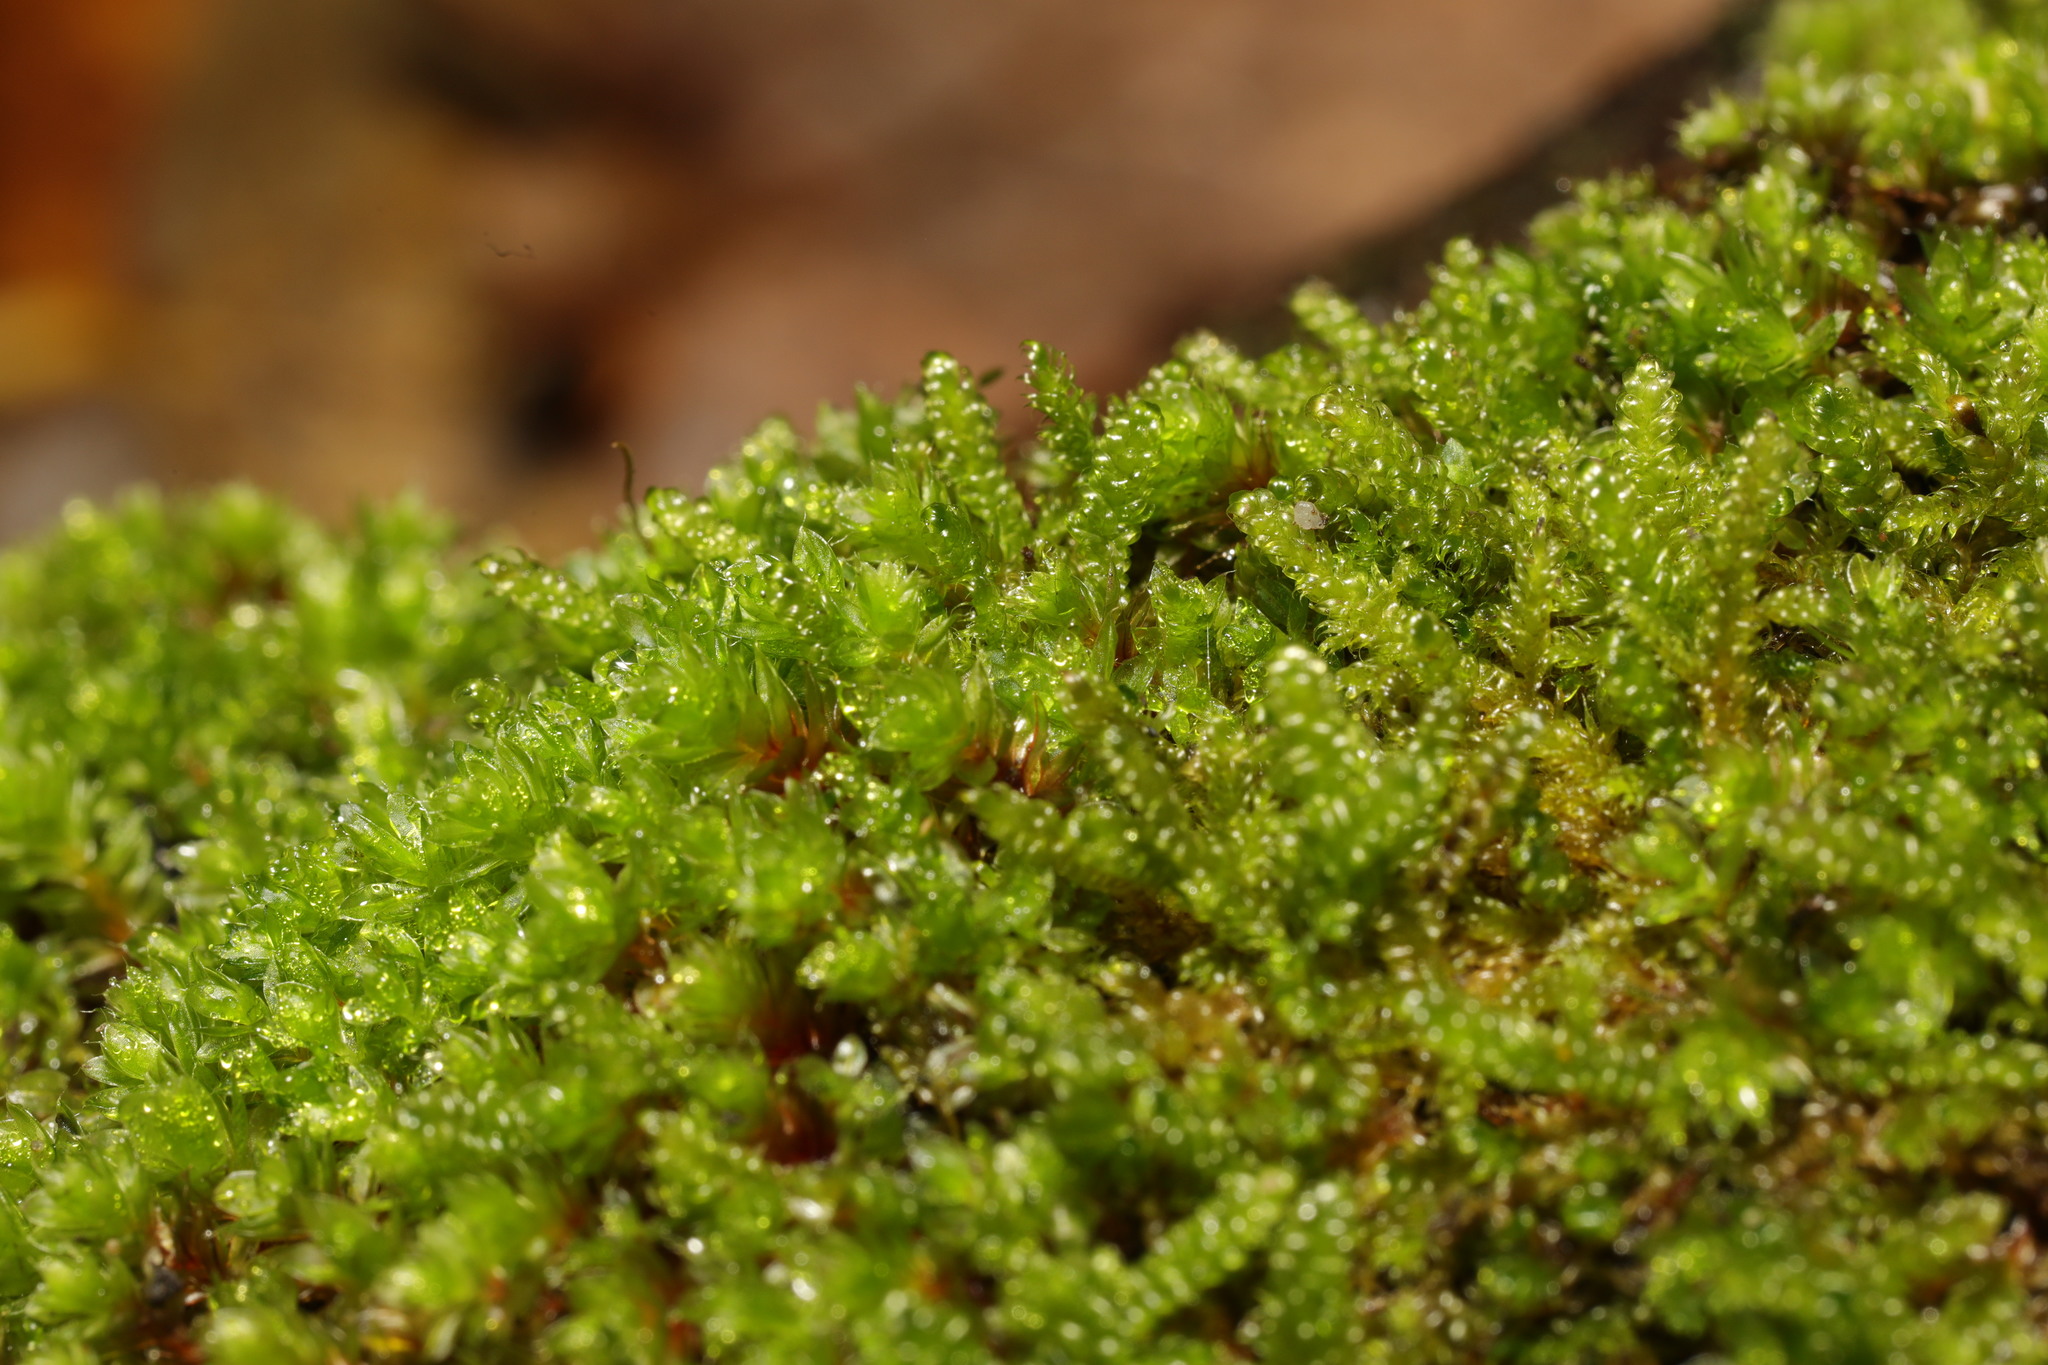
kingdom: Plantae
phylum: Bryophyta
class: Bryopsida
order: Hypnales
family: Hypnaceae
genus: Hypnum
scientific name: Hypnum cupressiforme
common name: Cypress-leaved plait-moss
